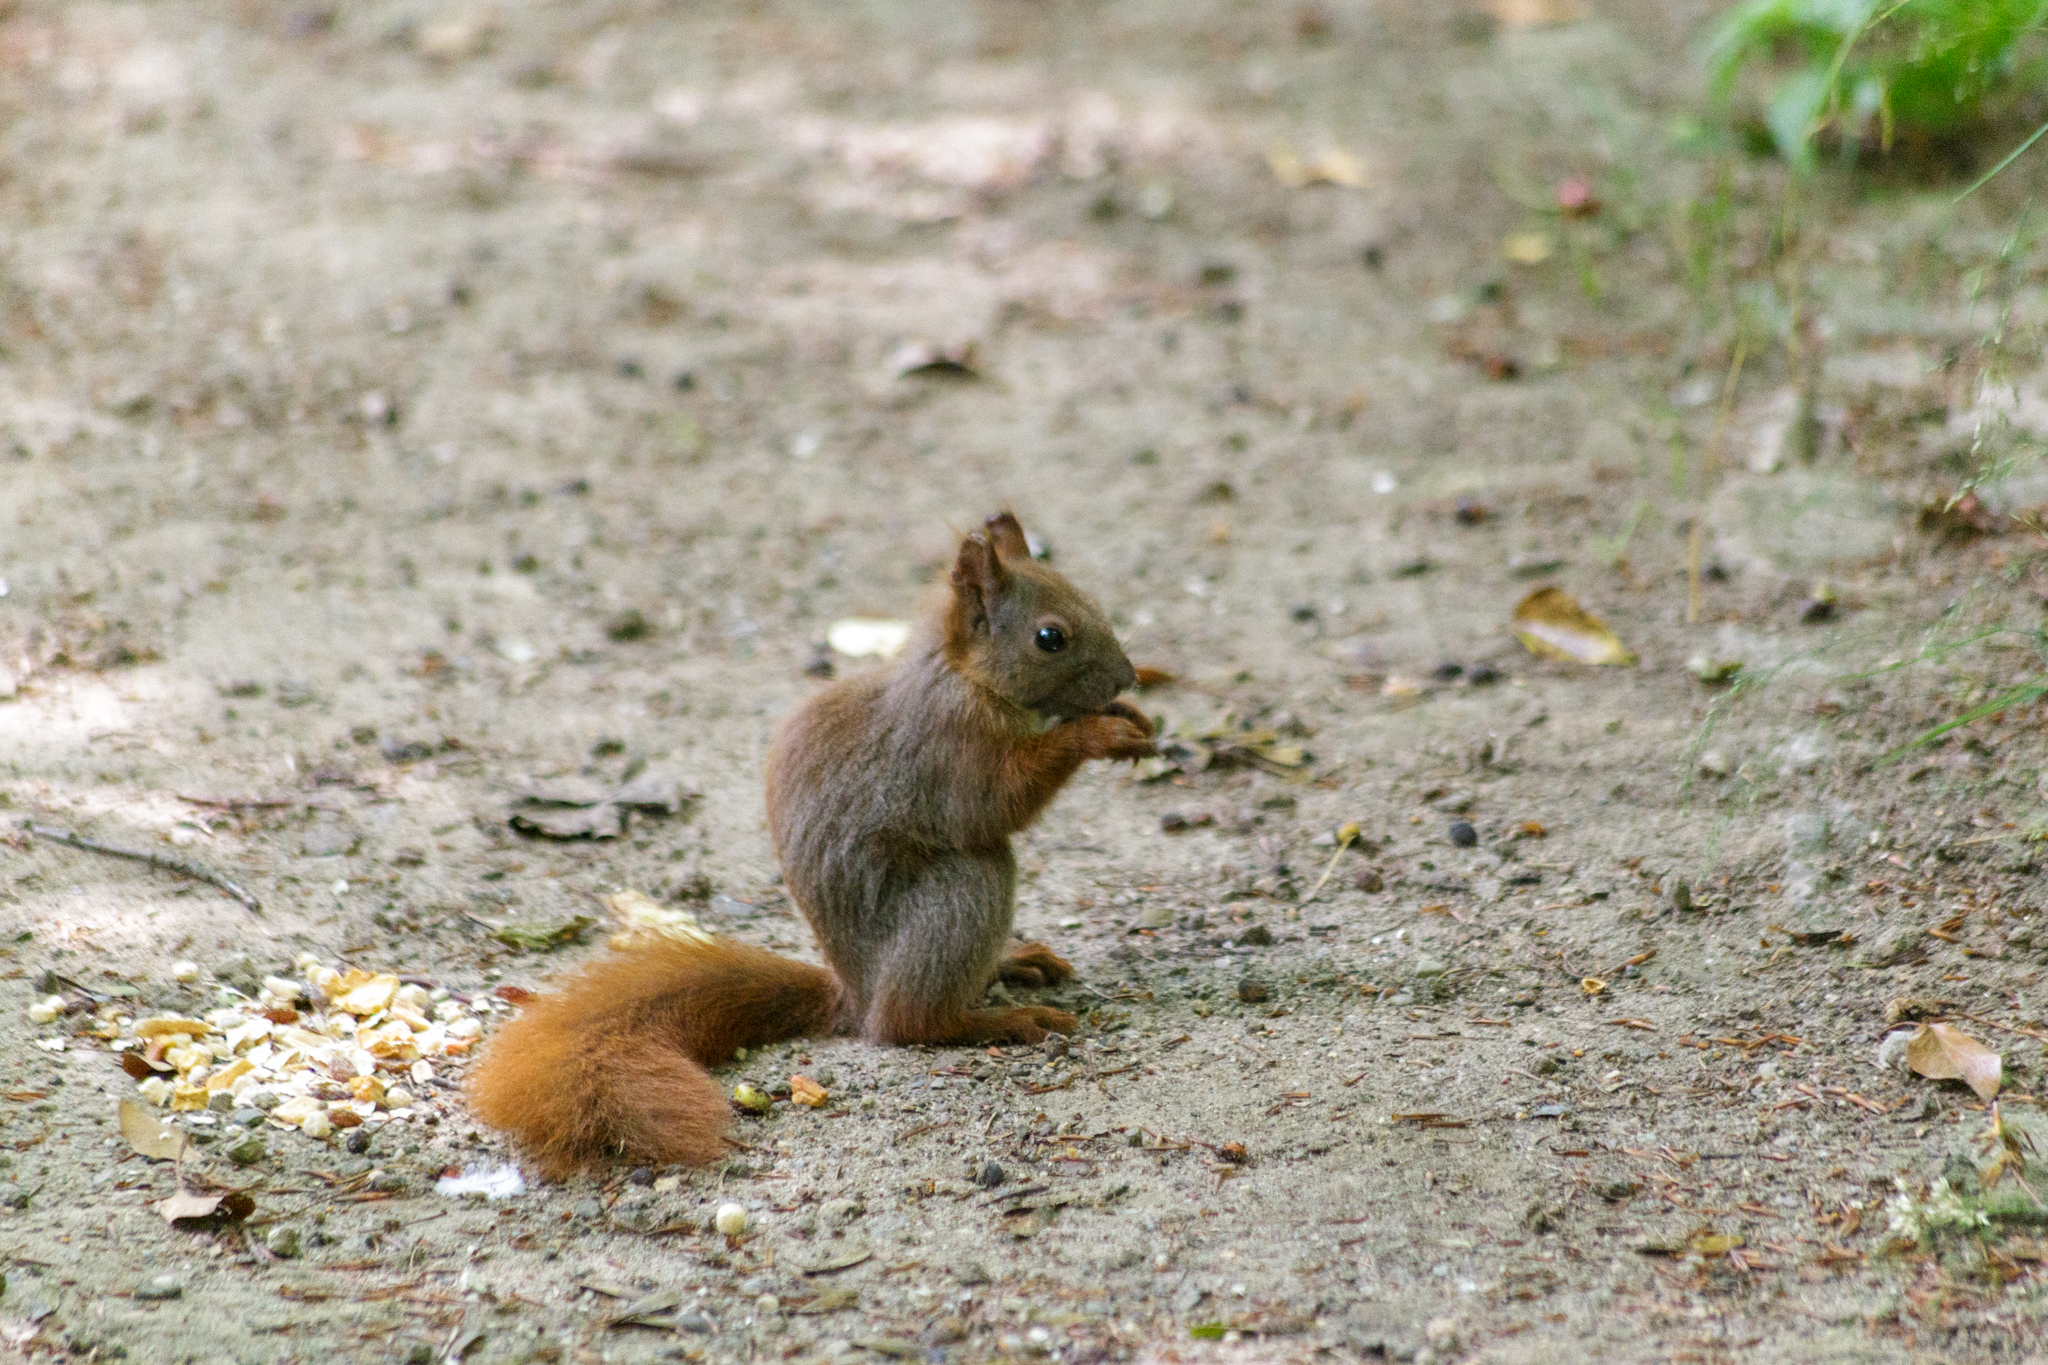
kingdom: Animalia
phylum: Chordata
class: Mammalia
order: Rodentia
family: Sciuridae
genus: Sciurus
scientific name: Sciurus vulgaris
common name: Eurasian red squirrel
